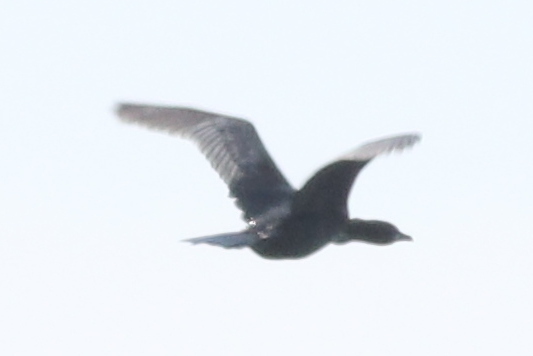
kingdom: Animalia
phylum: Chordata
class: Aves
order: Suliformes
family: Phalacrocoracidae
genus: Microcarbo
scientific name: Microcarbo pygmaeus
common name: Pygmy cormorant
